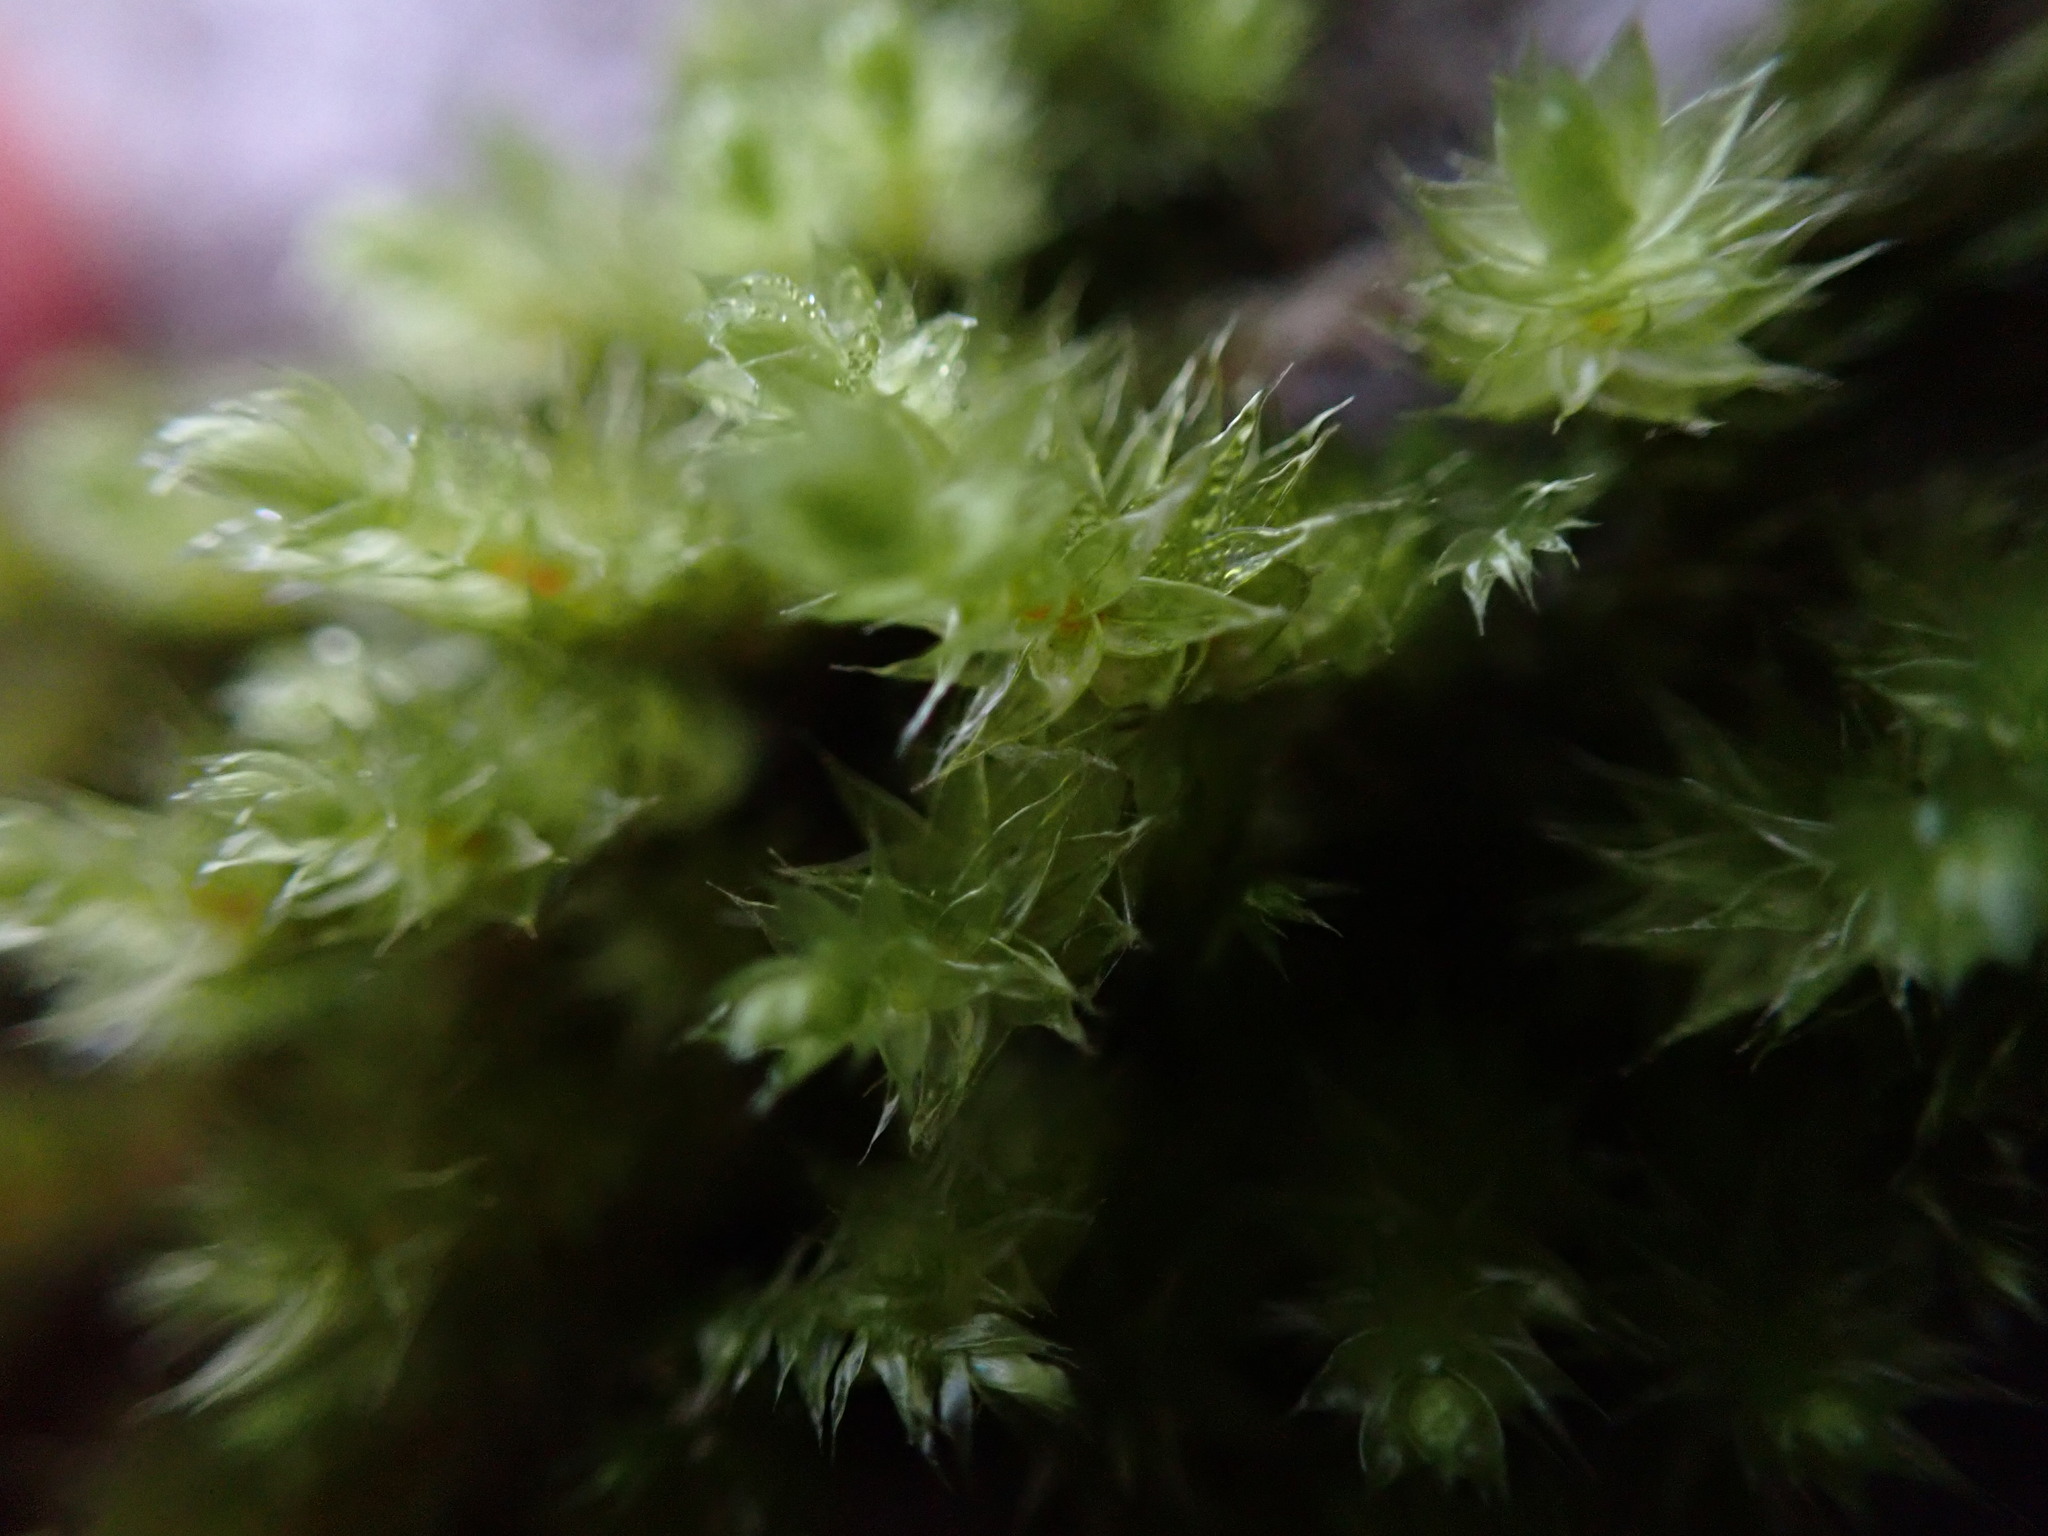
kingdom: Plantae
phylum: Bryophyta
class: Bryopsida
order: Hypnales
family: Antitrichiaceae
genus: Antitrichia
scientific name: Antitrichia curtipendula
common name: Pendulous wing-moss
